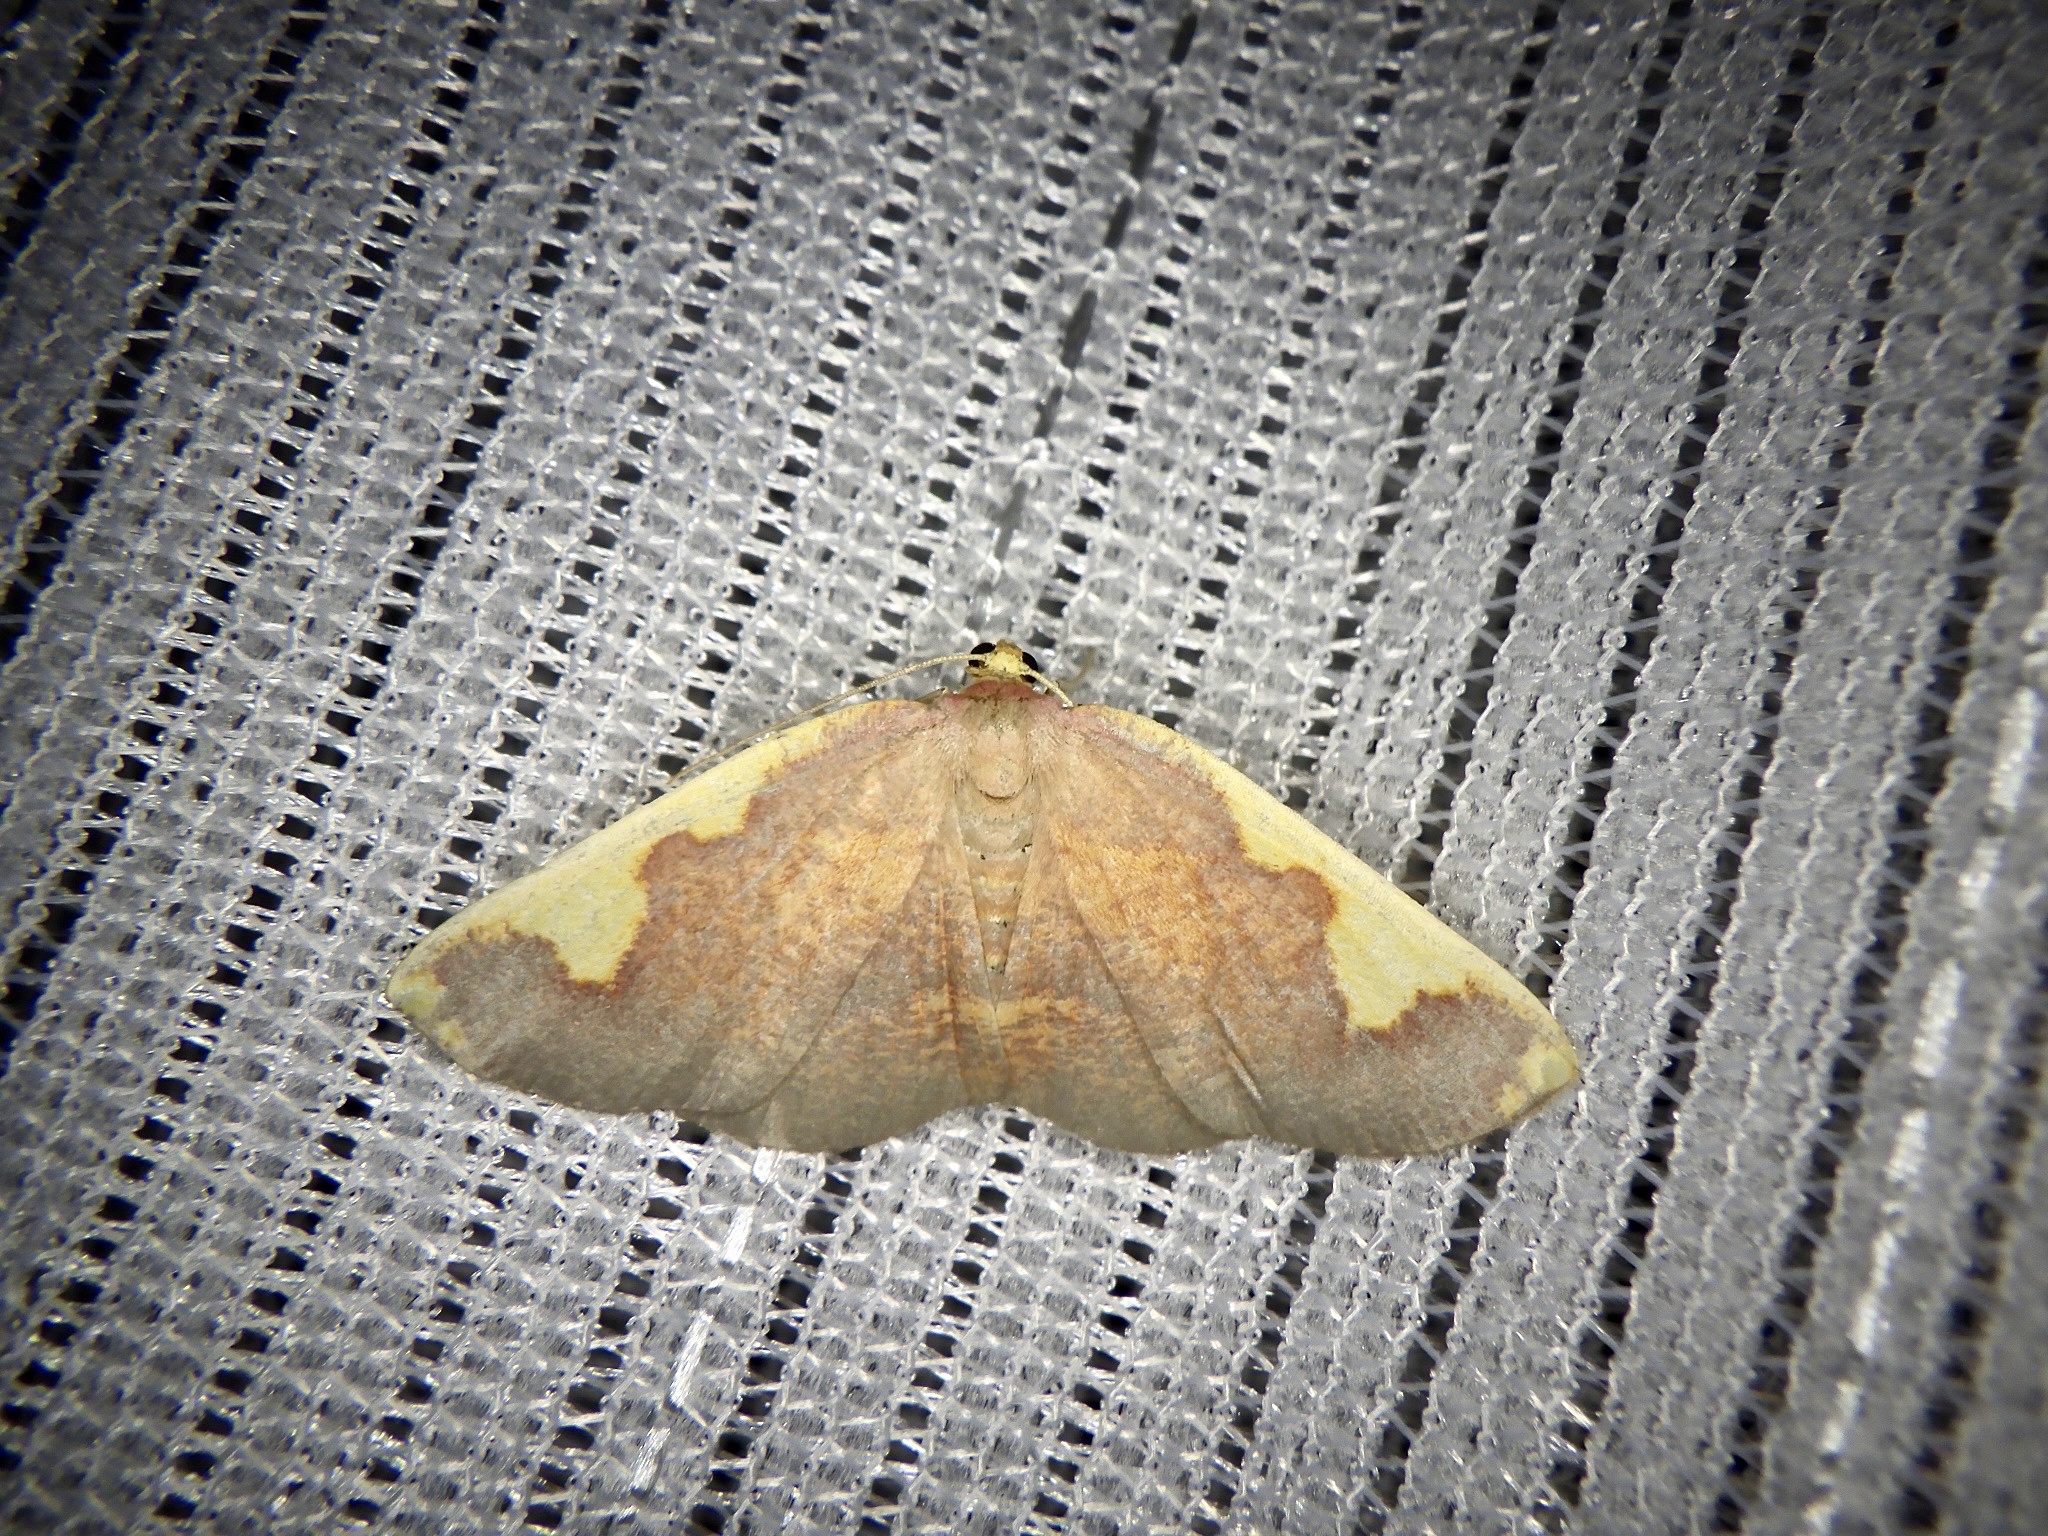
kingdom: Animalia
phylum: Arthropoda
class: Insecta
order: Lepidoptera
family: Geometridae
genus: Nothomiza
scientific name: Nothomiza formosa
